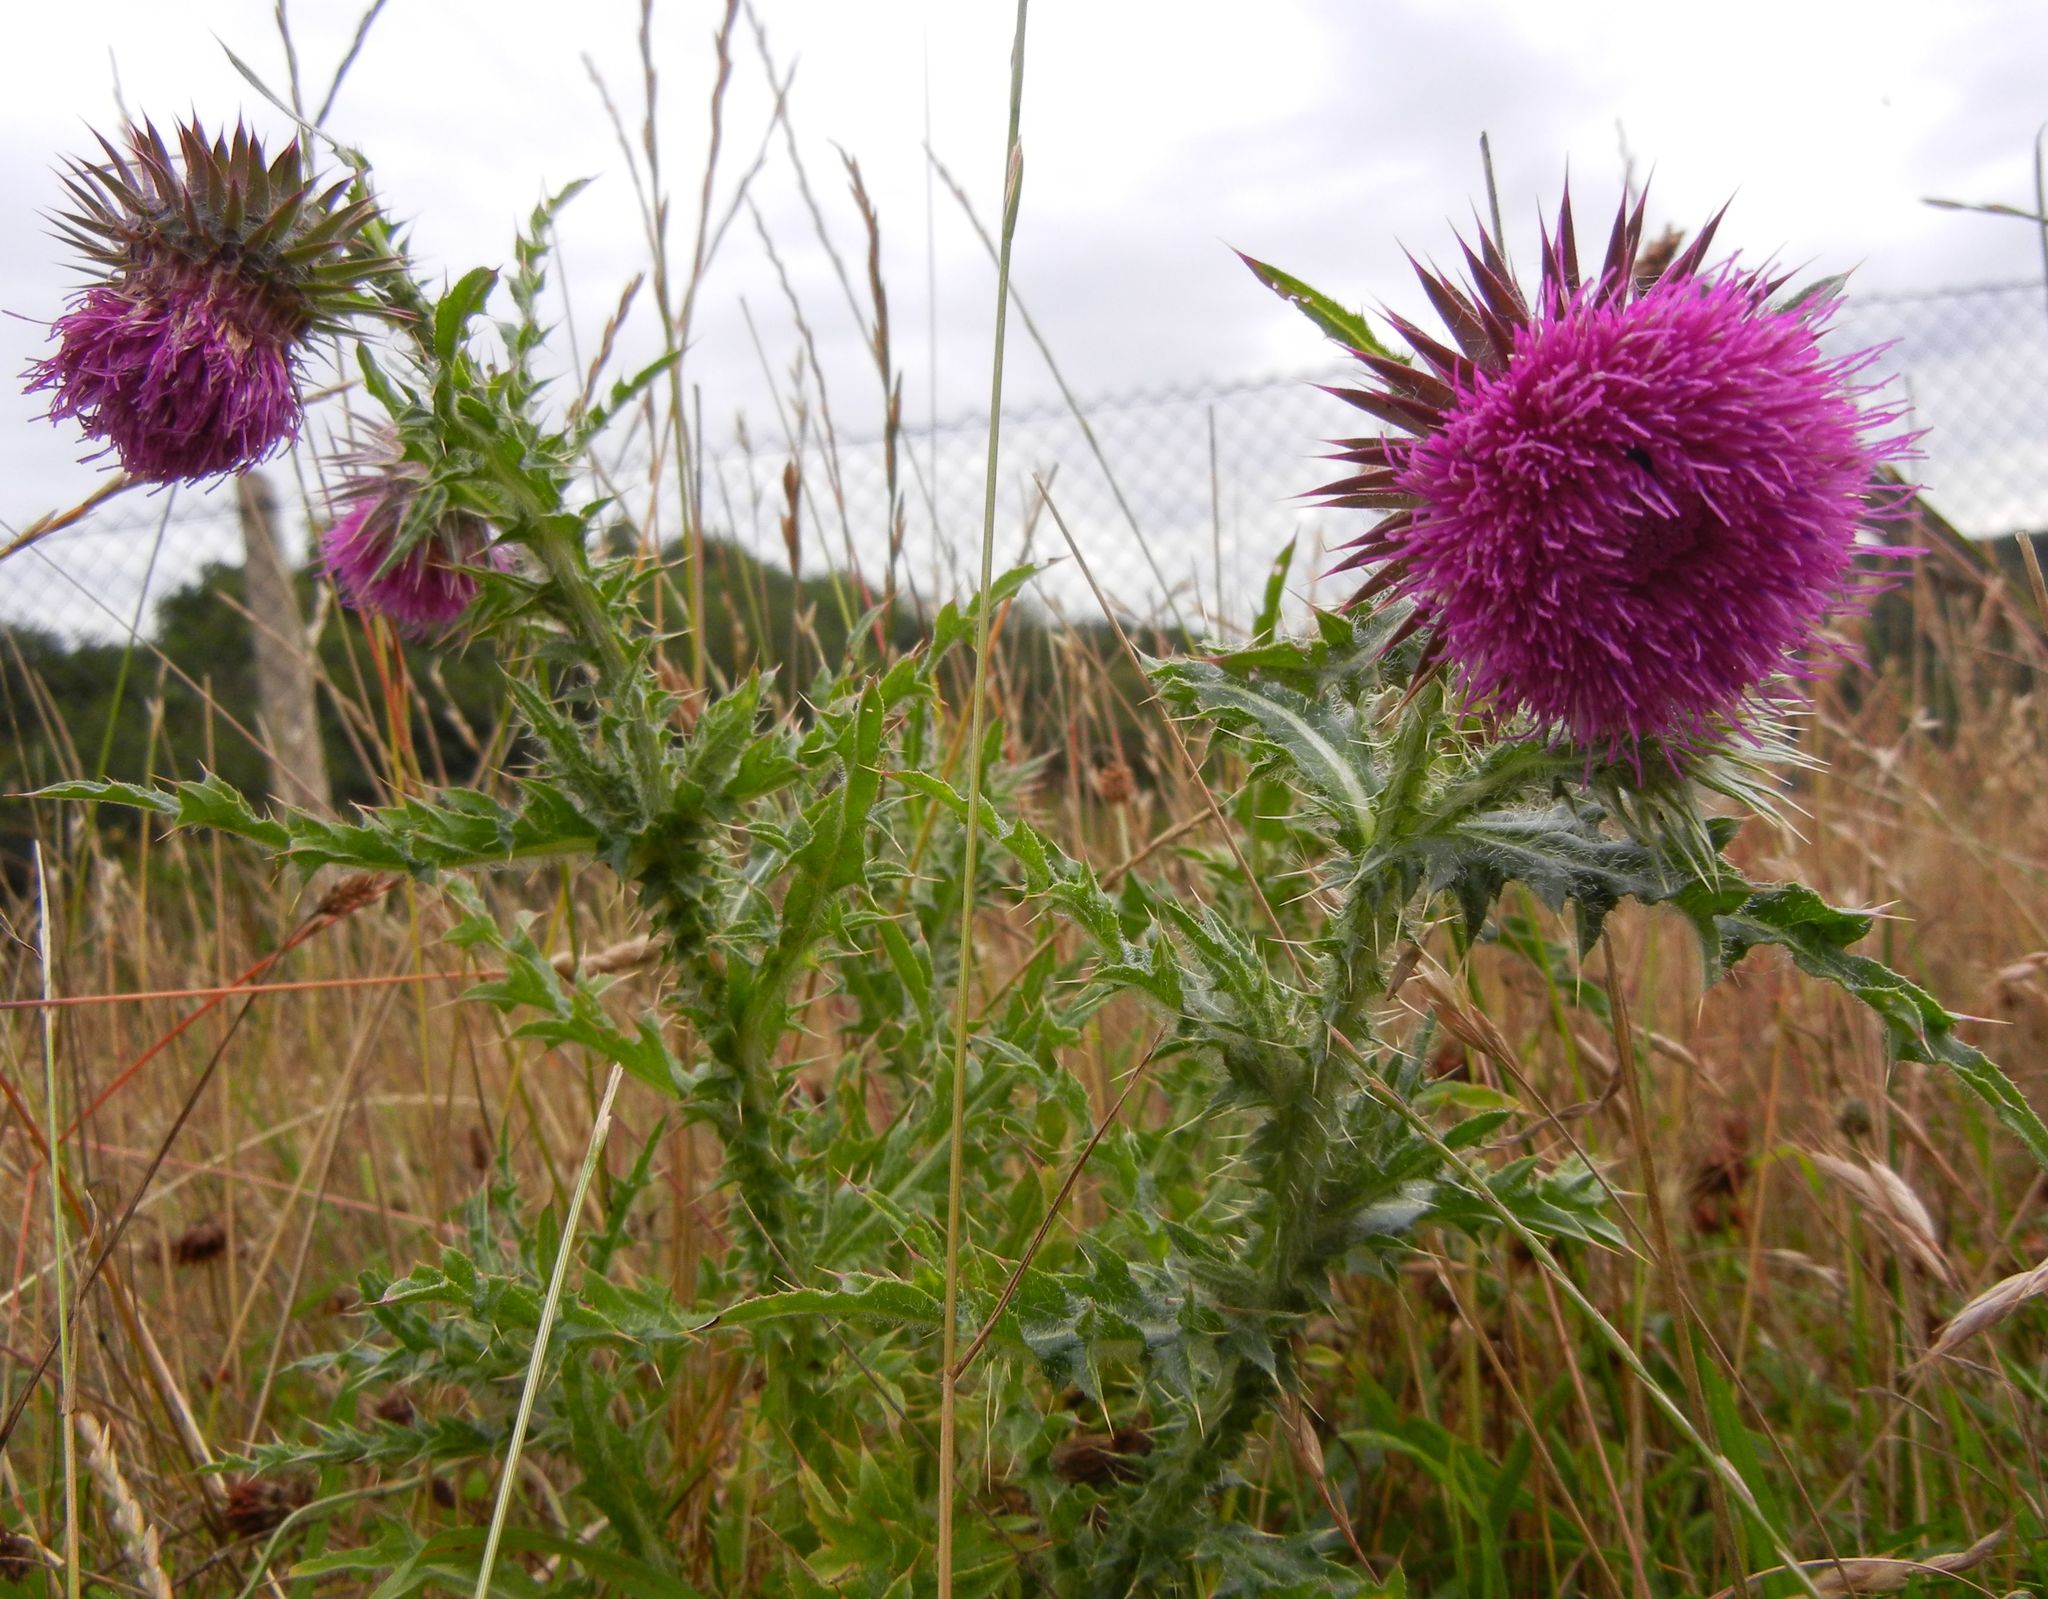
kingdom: Plantae
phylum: Tracheophyta
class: Magnoliopsida
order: Asterales
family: Asteraceae
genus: Carduus
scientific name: Carduus nutans
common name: Musk thistle
